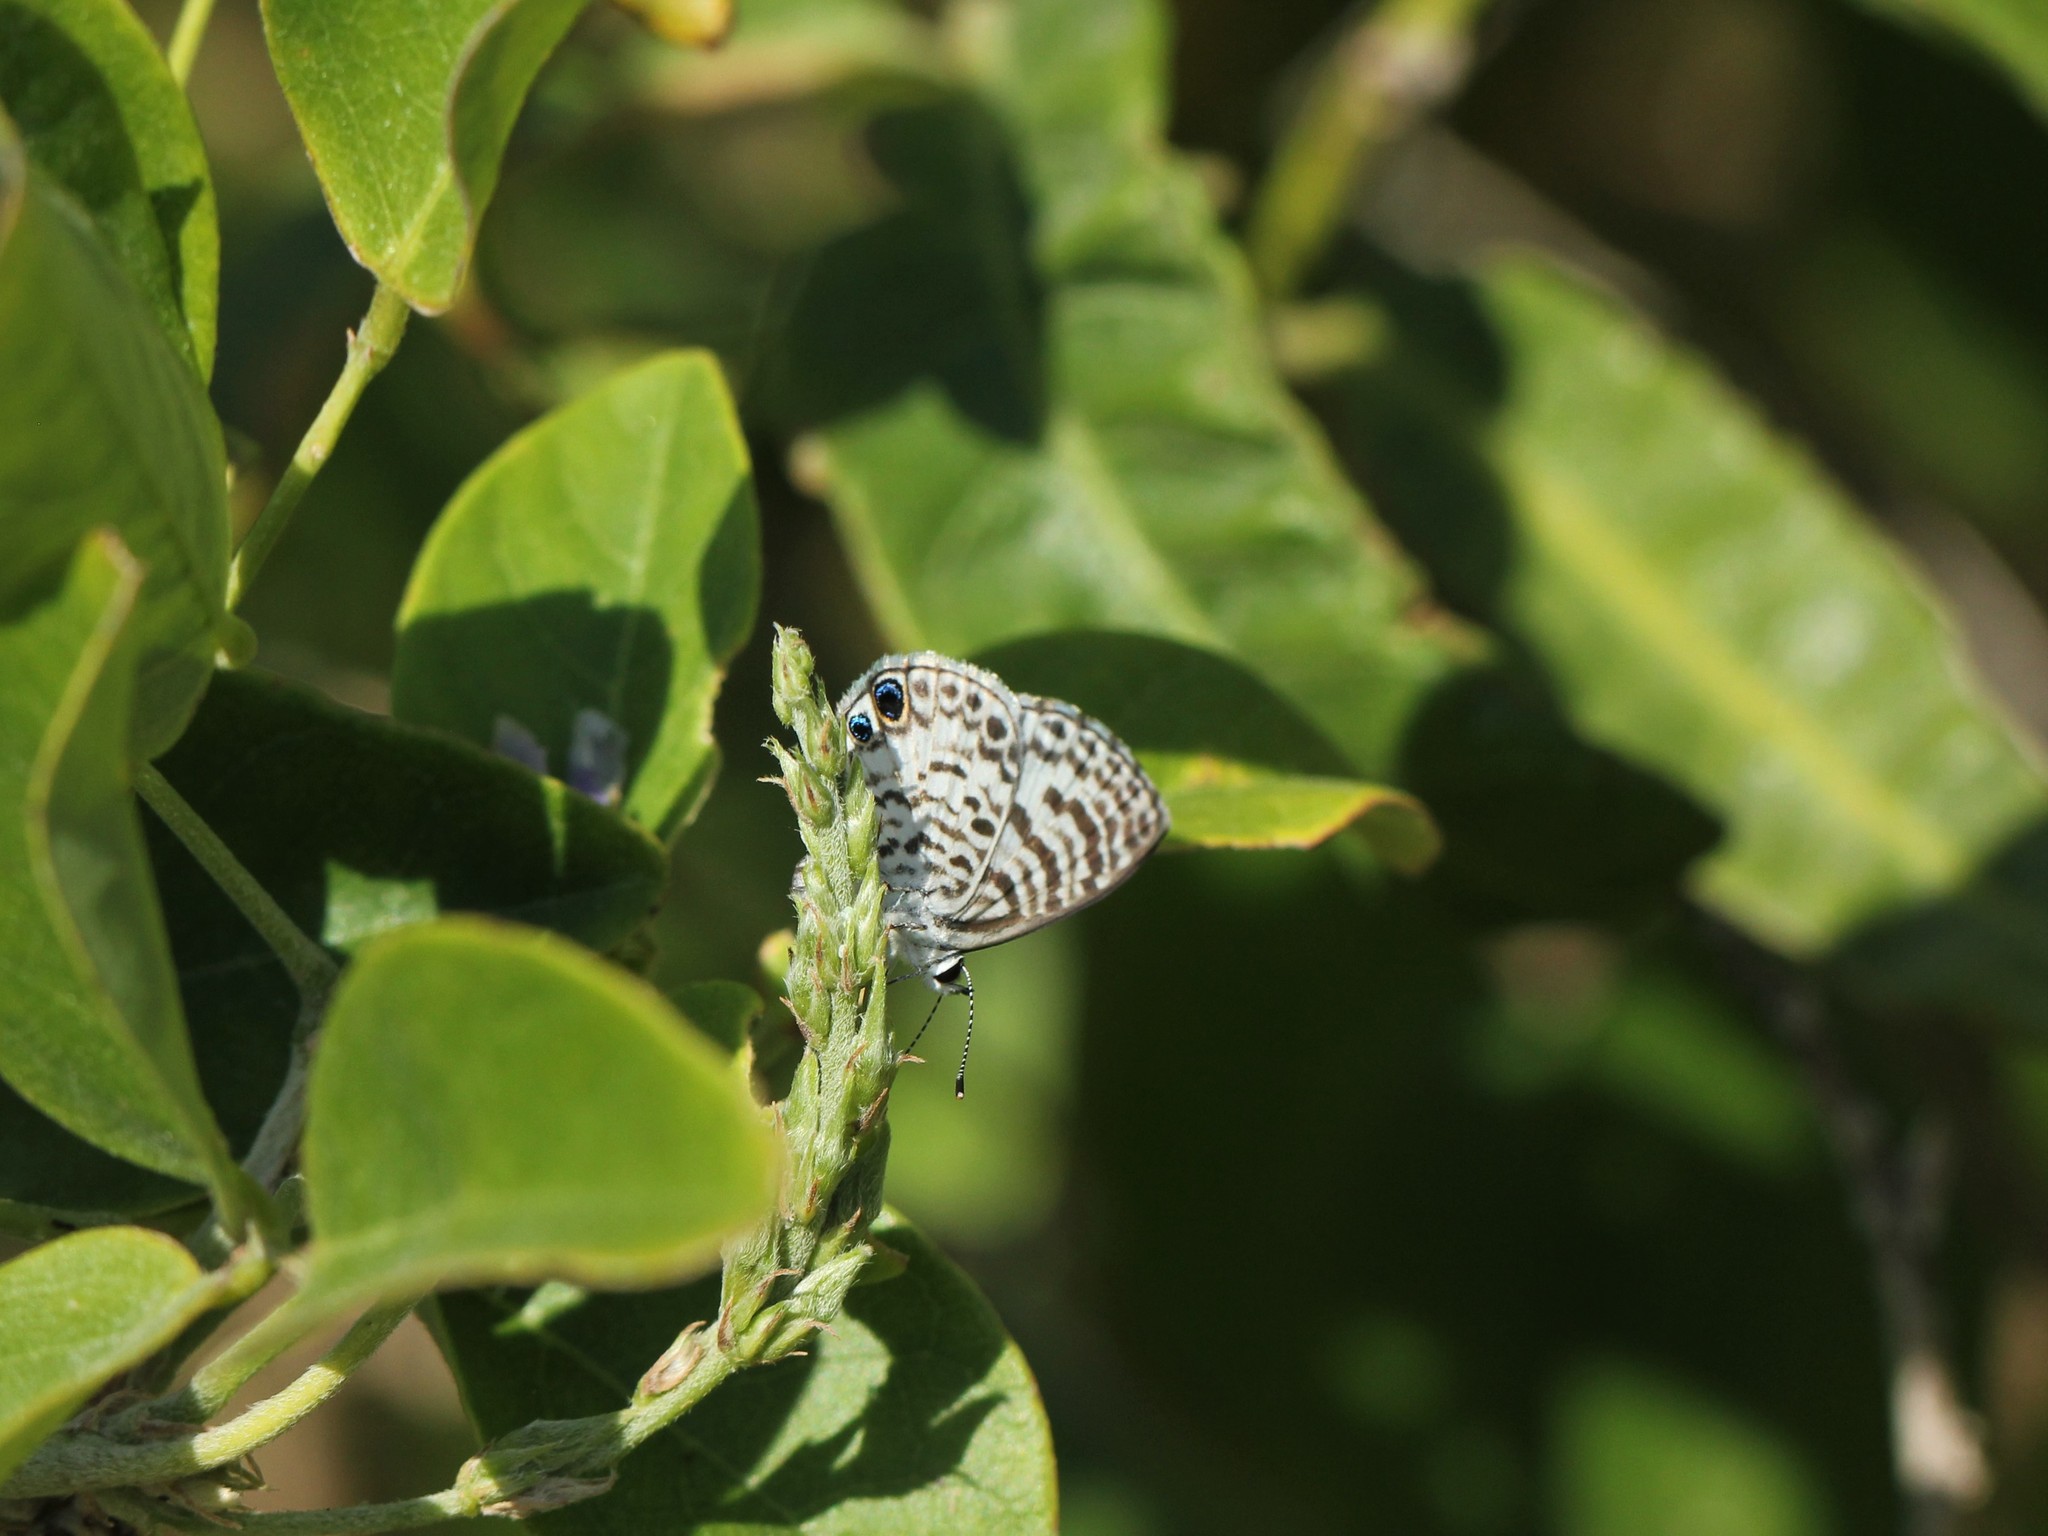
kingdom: Animalia
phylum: Arthropoda
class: Insecta
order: Lepidoptera
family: Lycaenidae
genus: Leptotes
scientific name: Leptotes cassius
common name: Cassius blue
